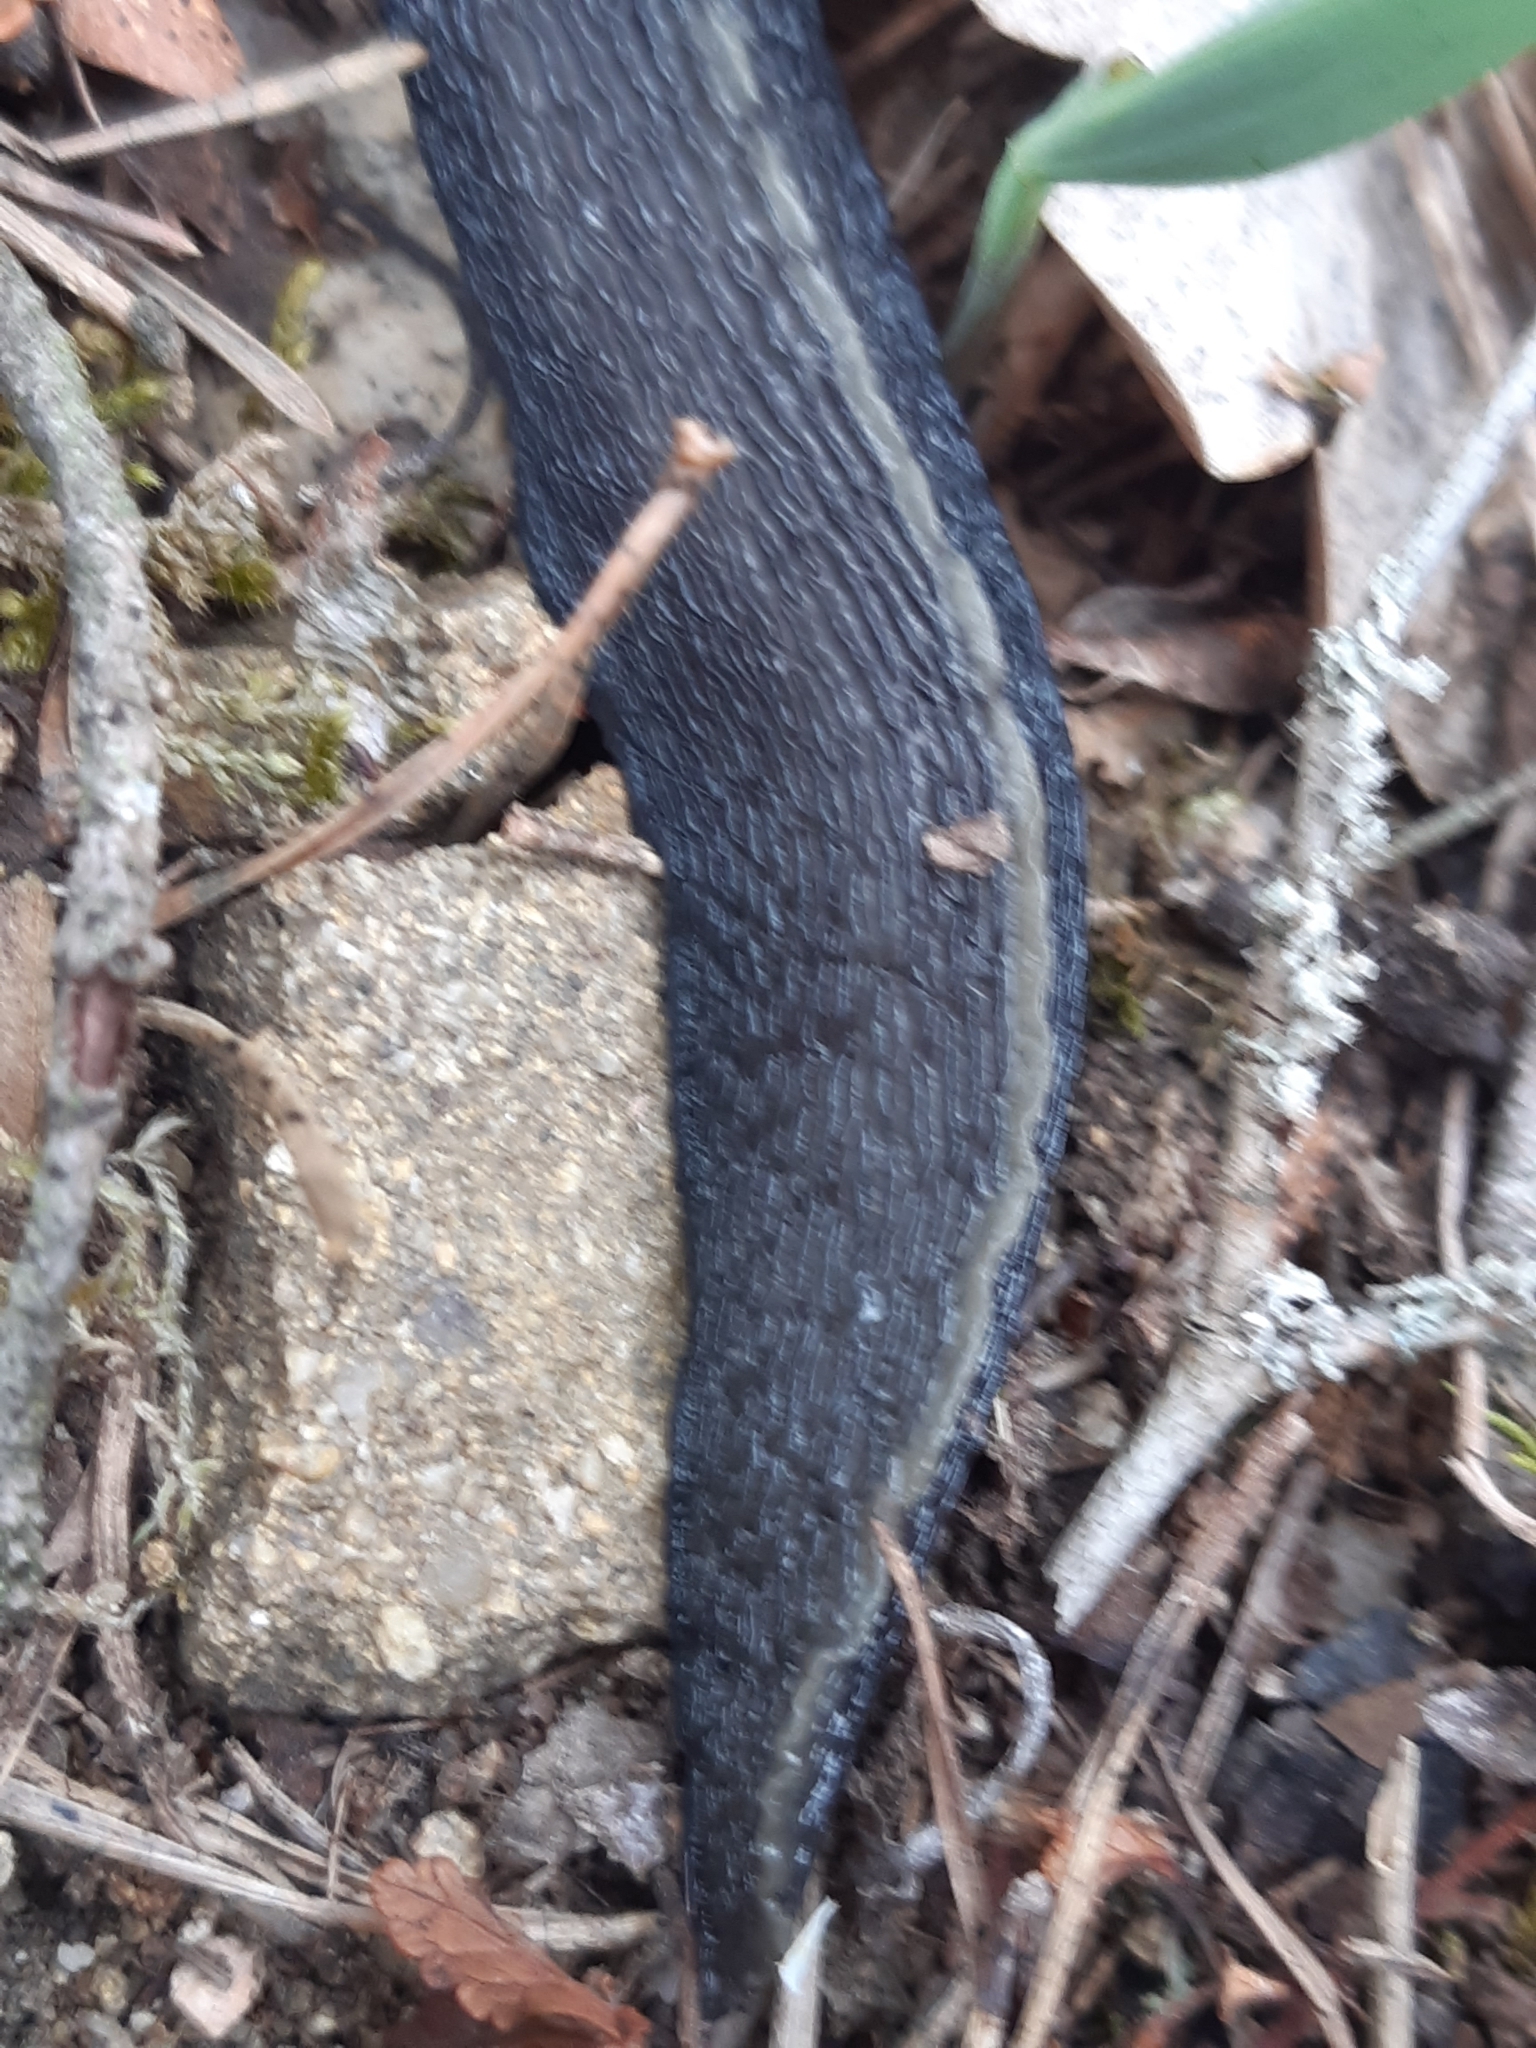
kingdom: Animalia
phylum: Mollusca
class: Gastropoda
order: Stylommatophora
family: Limacidae
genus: Limax
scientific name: Limax cinereoniger
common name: Ash-black slug
